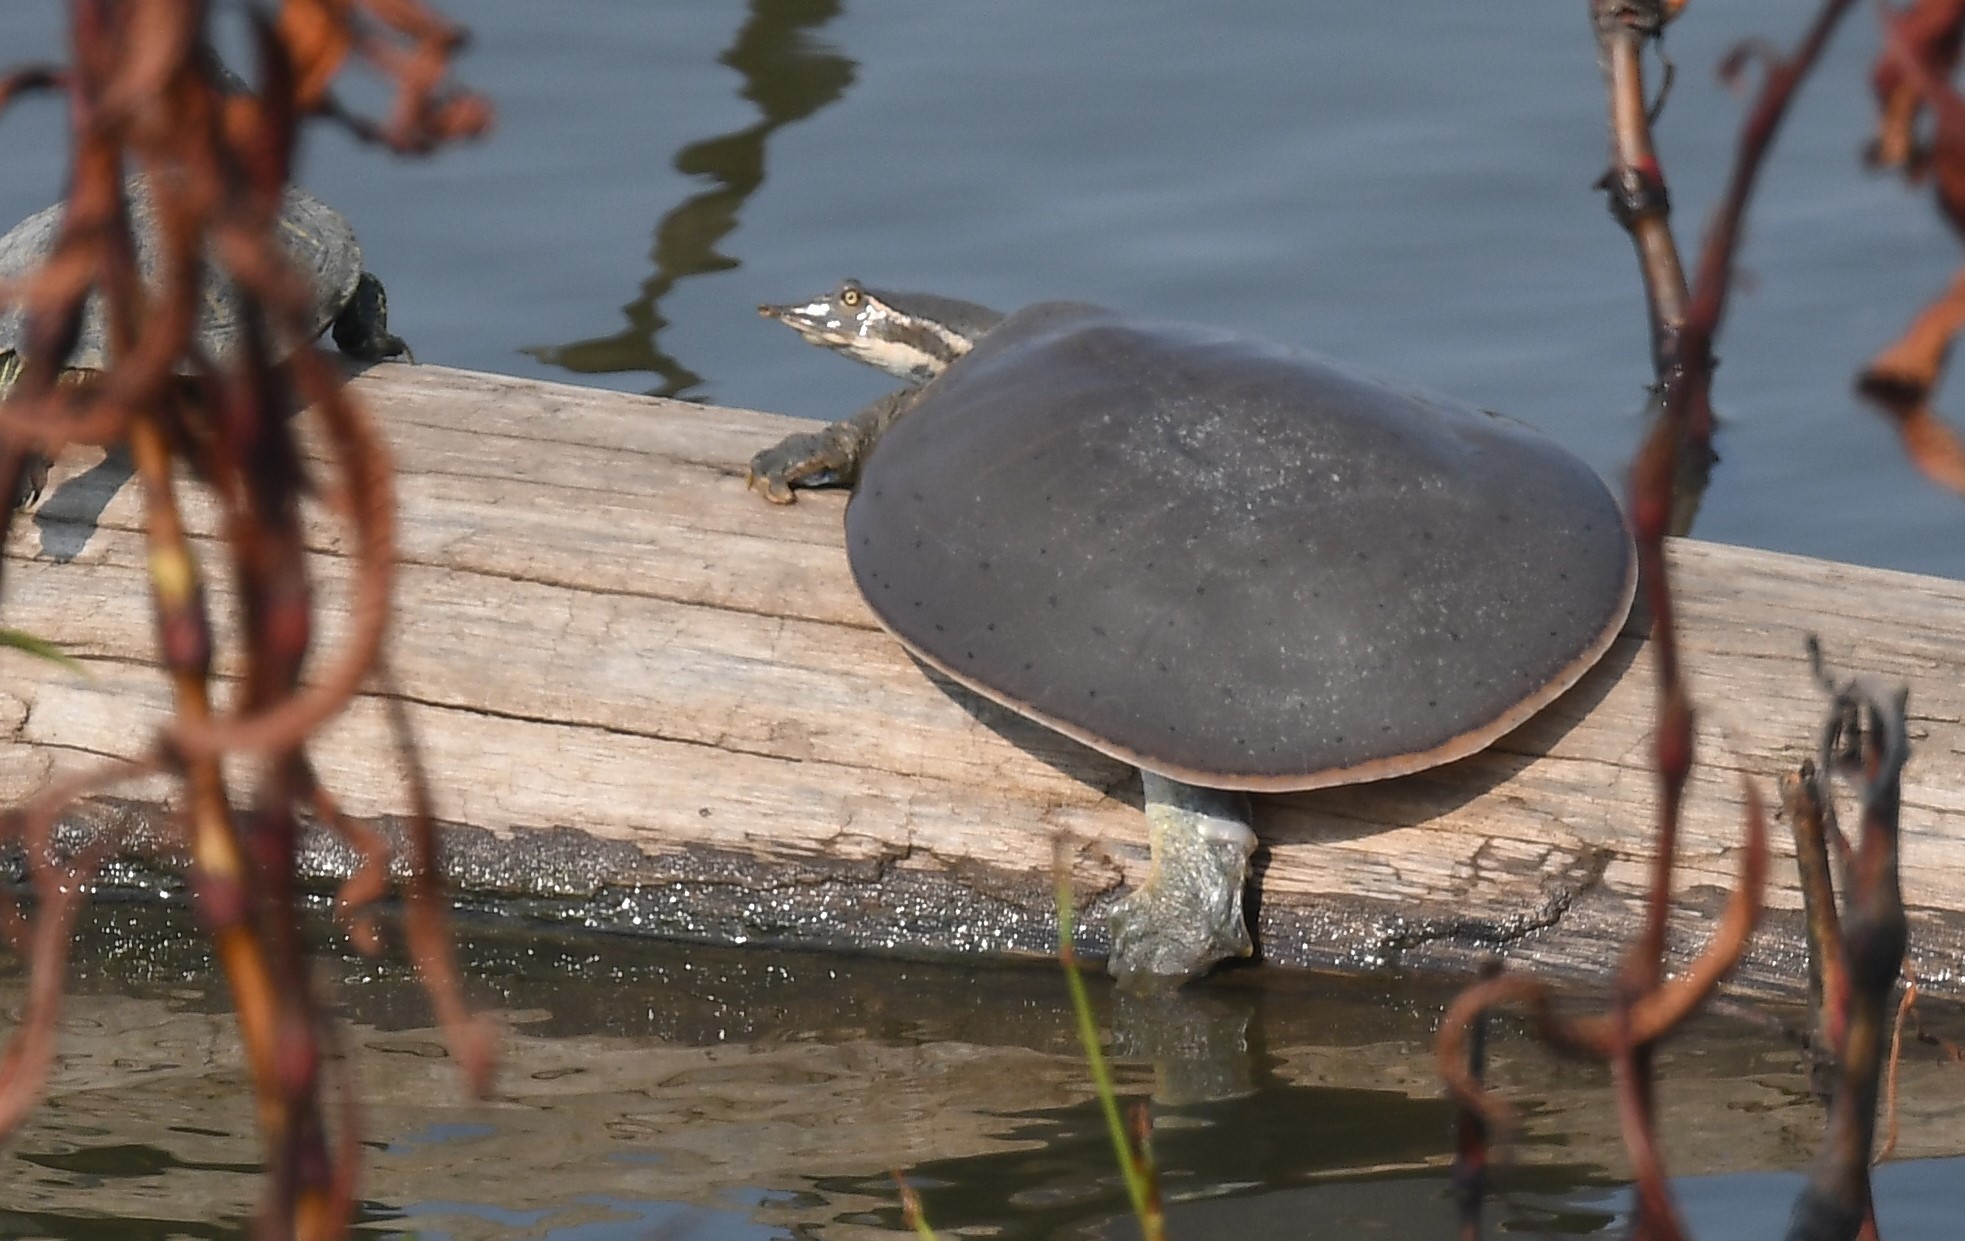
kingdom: Animalia
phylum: Chordata
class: Testudines
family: Trionychidae
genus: Apalone
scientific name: Apalone mutica
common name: Smooth softshell turtle
